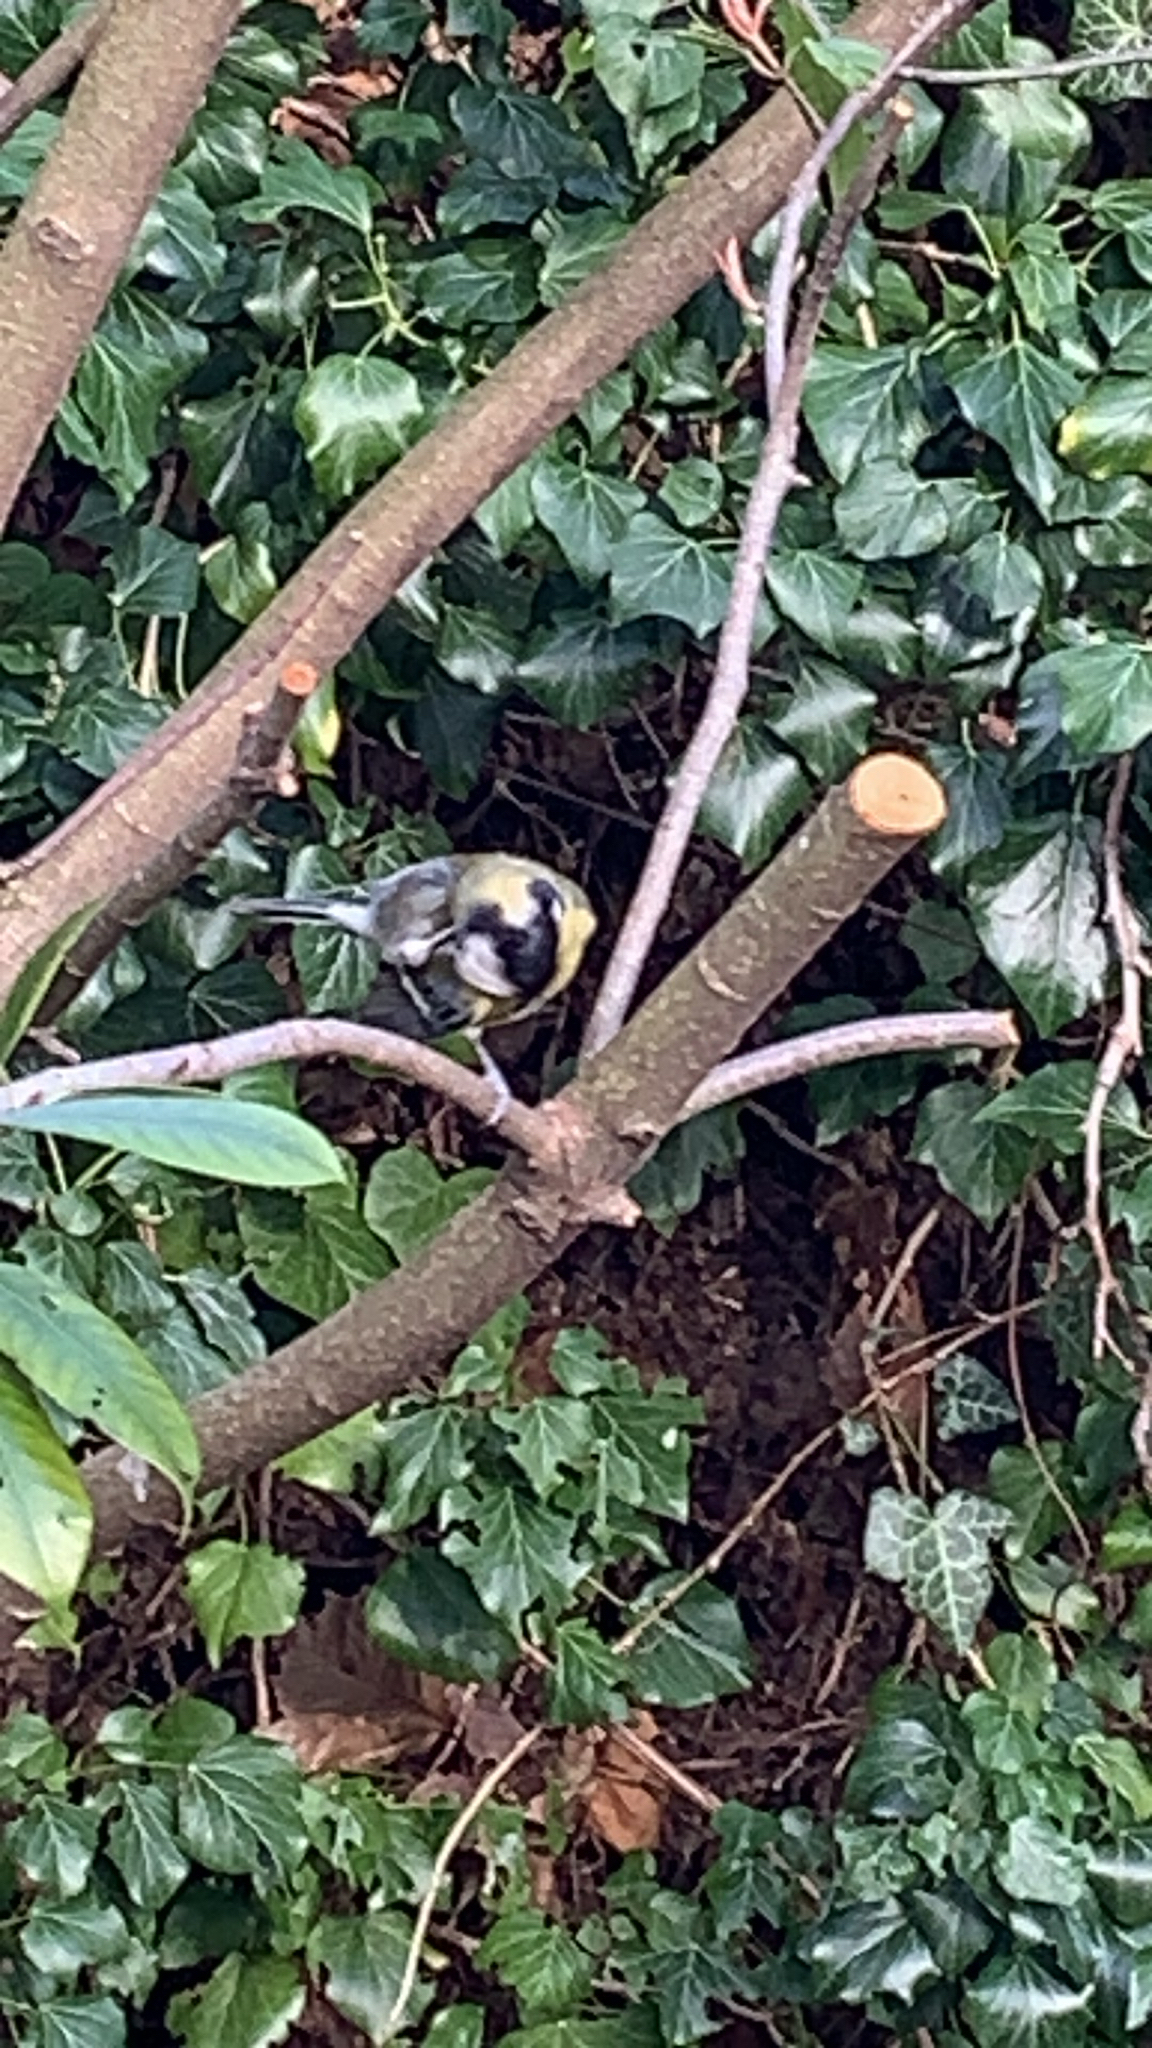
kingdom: Animalia
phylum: Chordata
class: Aves
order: Passeriformes
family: Paridae
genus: Parus
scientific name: Parus major
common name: Great tit
